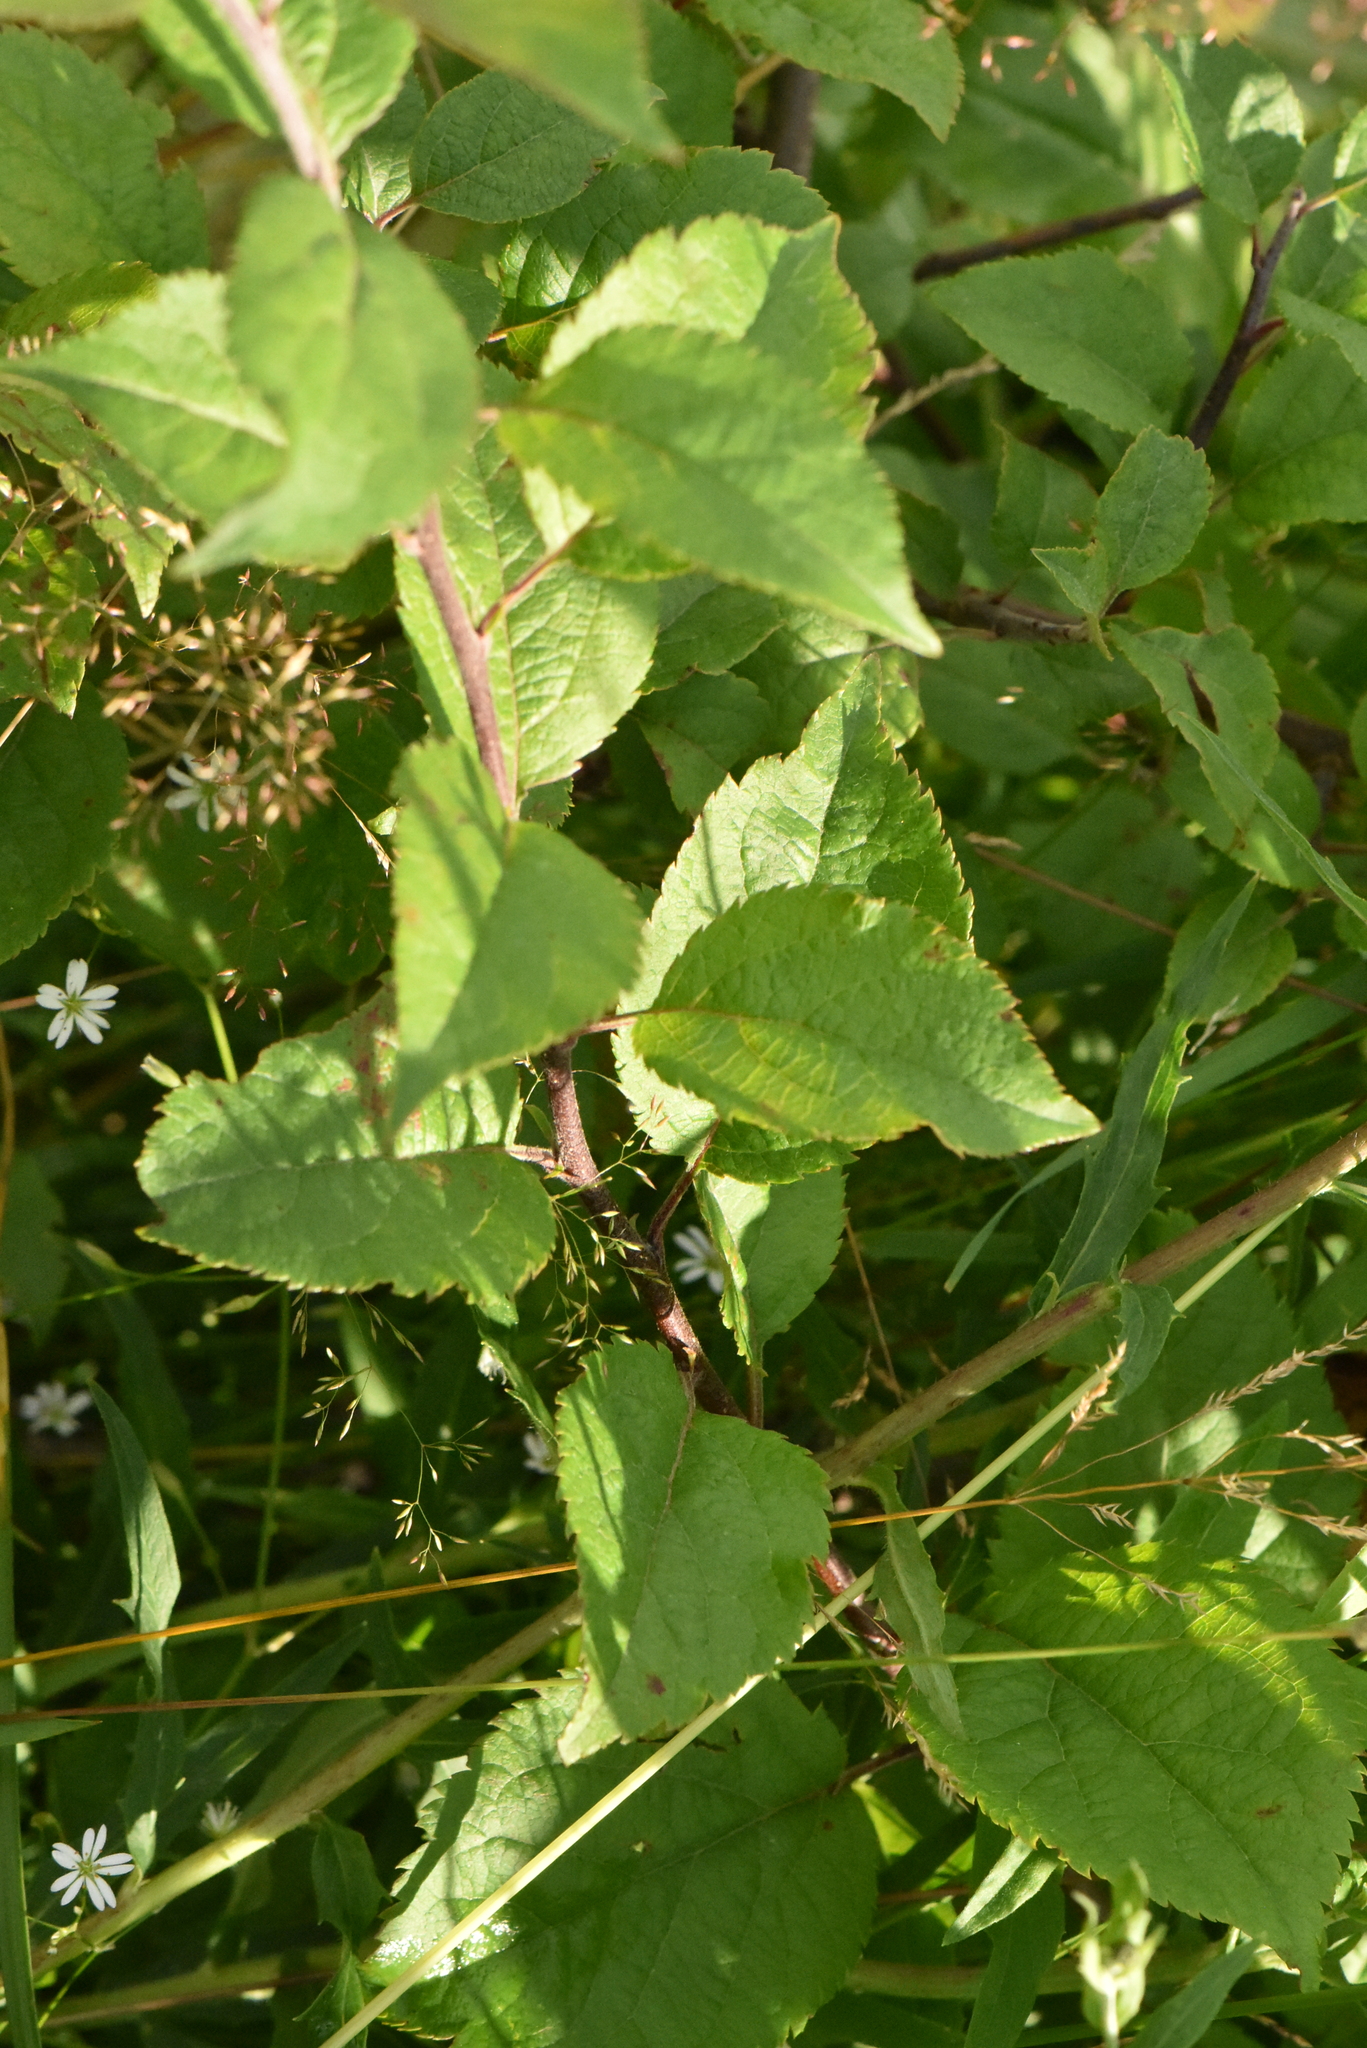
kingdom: Plantae
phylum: Tracheophyta
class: Magnoliopsida
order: Rosales
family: Rosaceae
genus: Malus
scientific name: Malus domestica
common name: Apple
